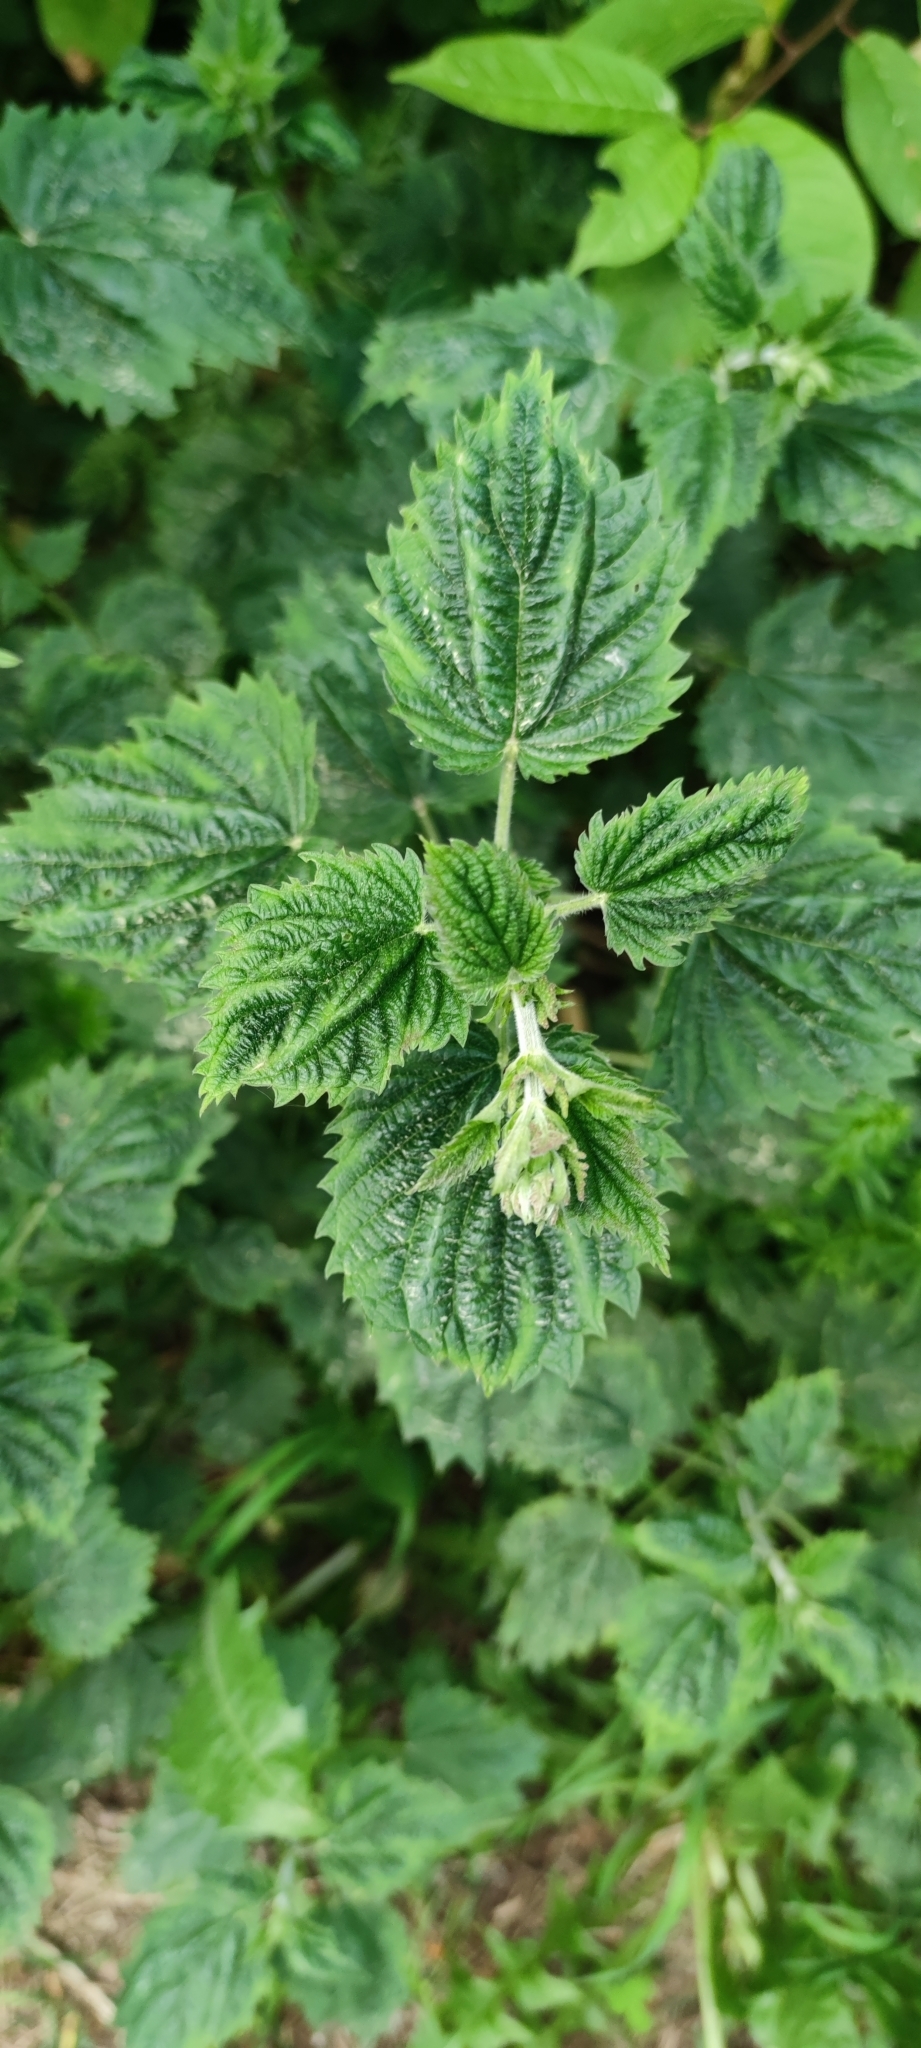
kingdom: Plantae
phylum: Tracheophyta
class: Magnoliopsida
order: Rosales
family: Urticaceae
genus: Urtica
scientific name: Urtica dioica
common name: Common nettle
